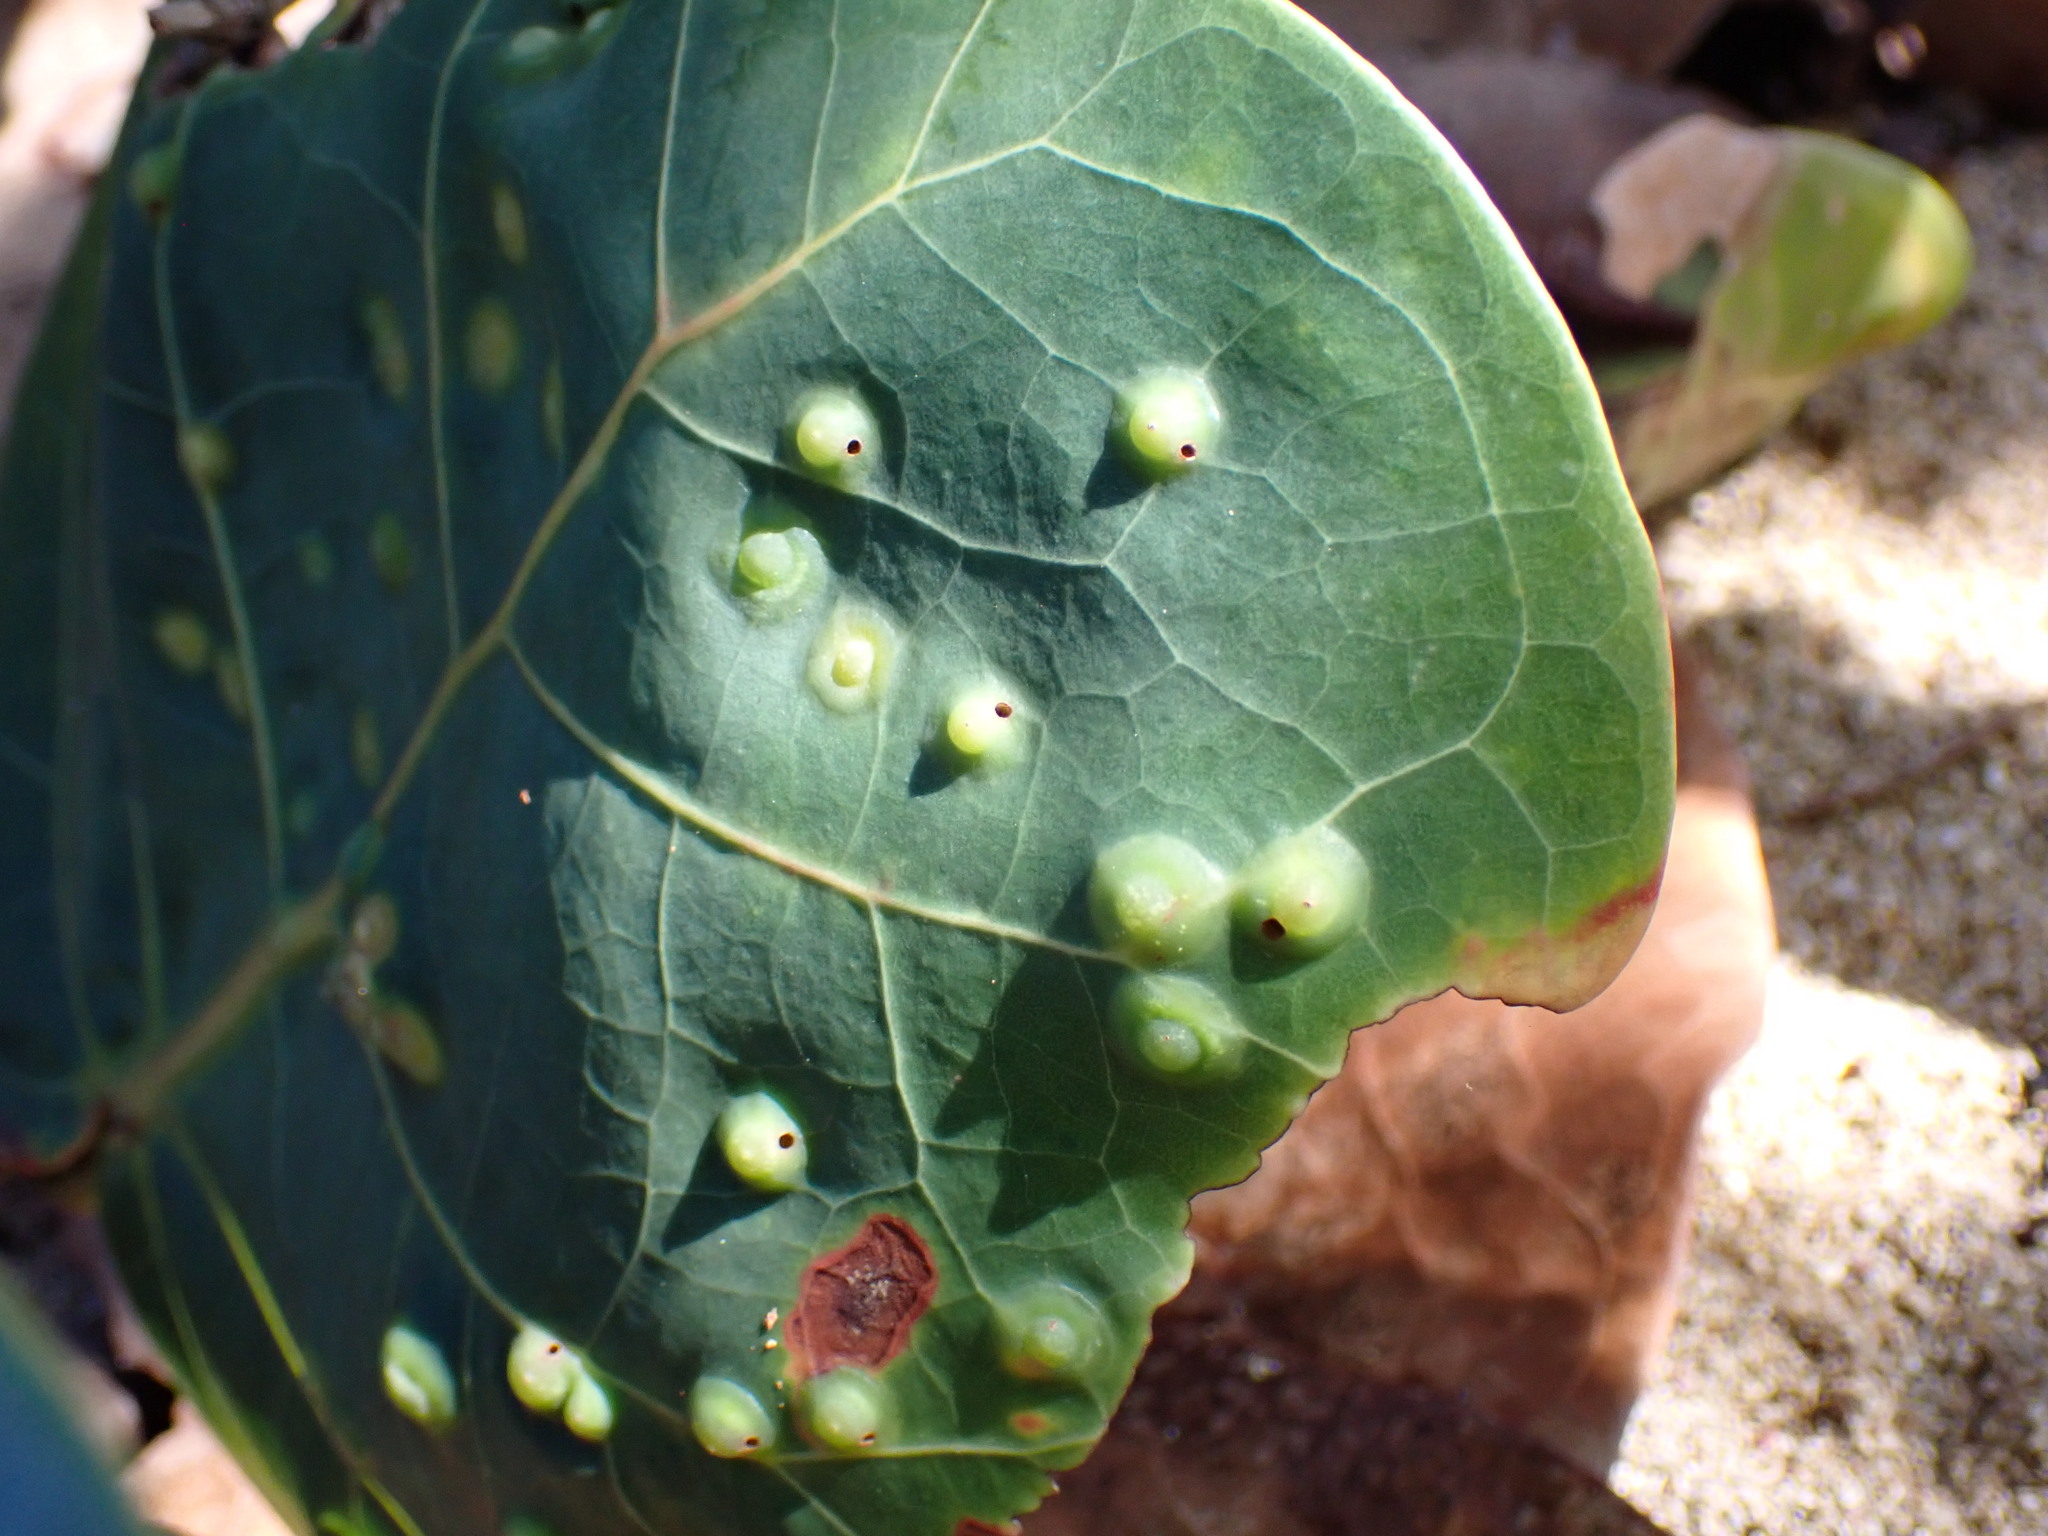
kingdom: Animalia
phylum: Arthropoda
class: Insecta
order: Diptera
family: Cecidomyiidae
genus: Ctenodactylomyia
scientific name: Ctenodactylomyia watsoni
